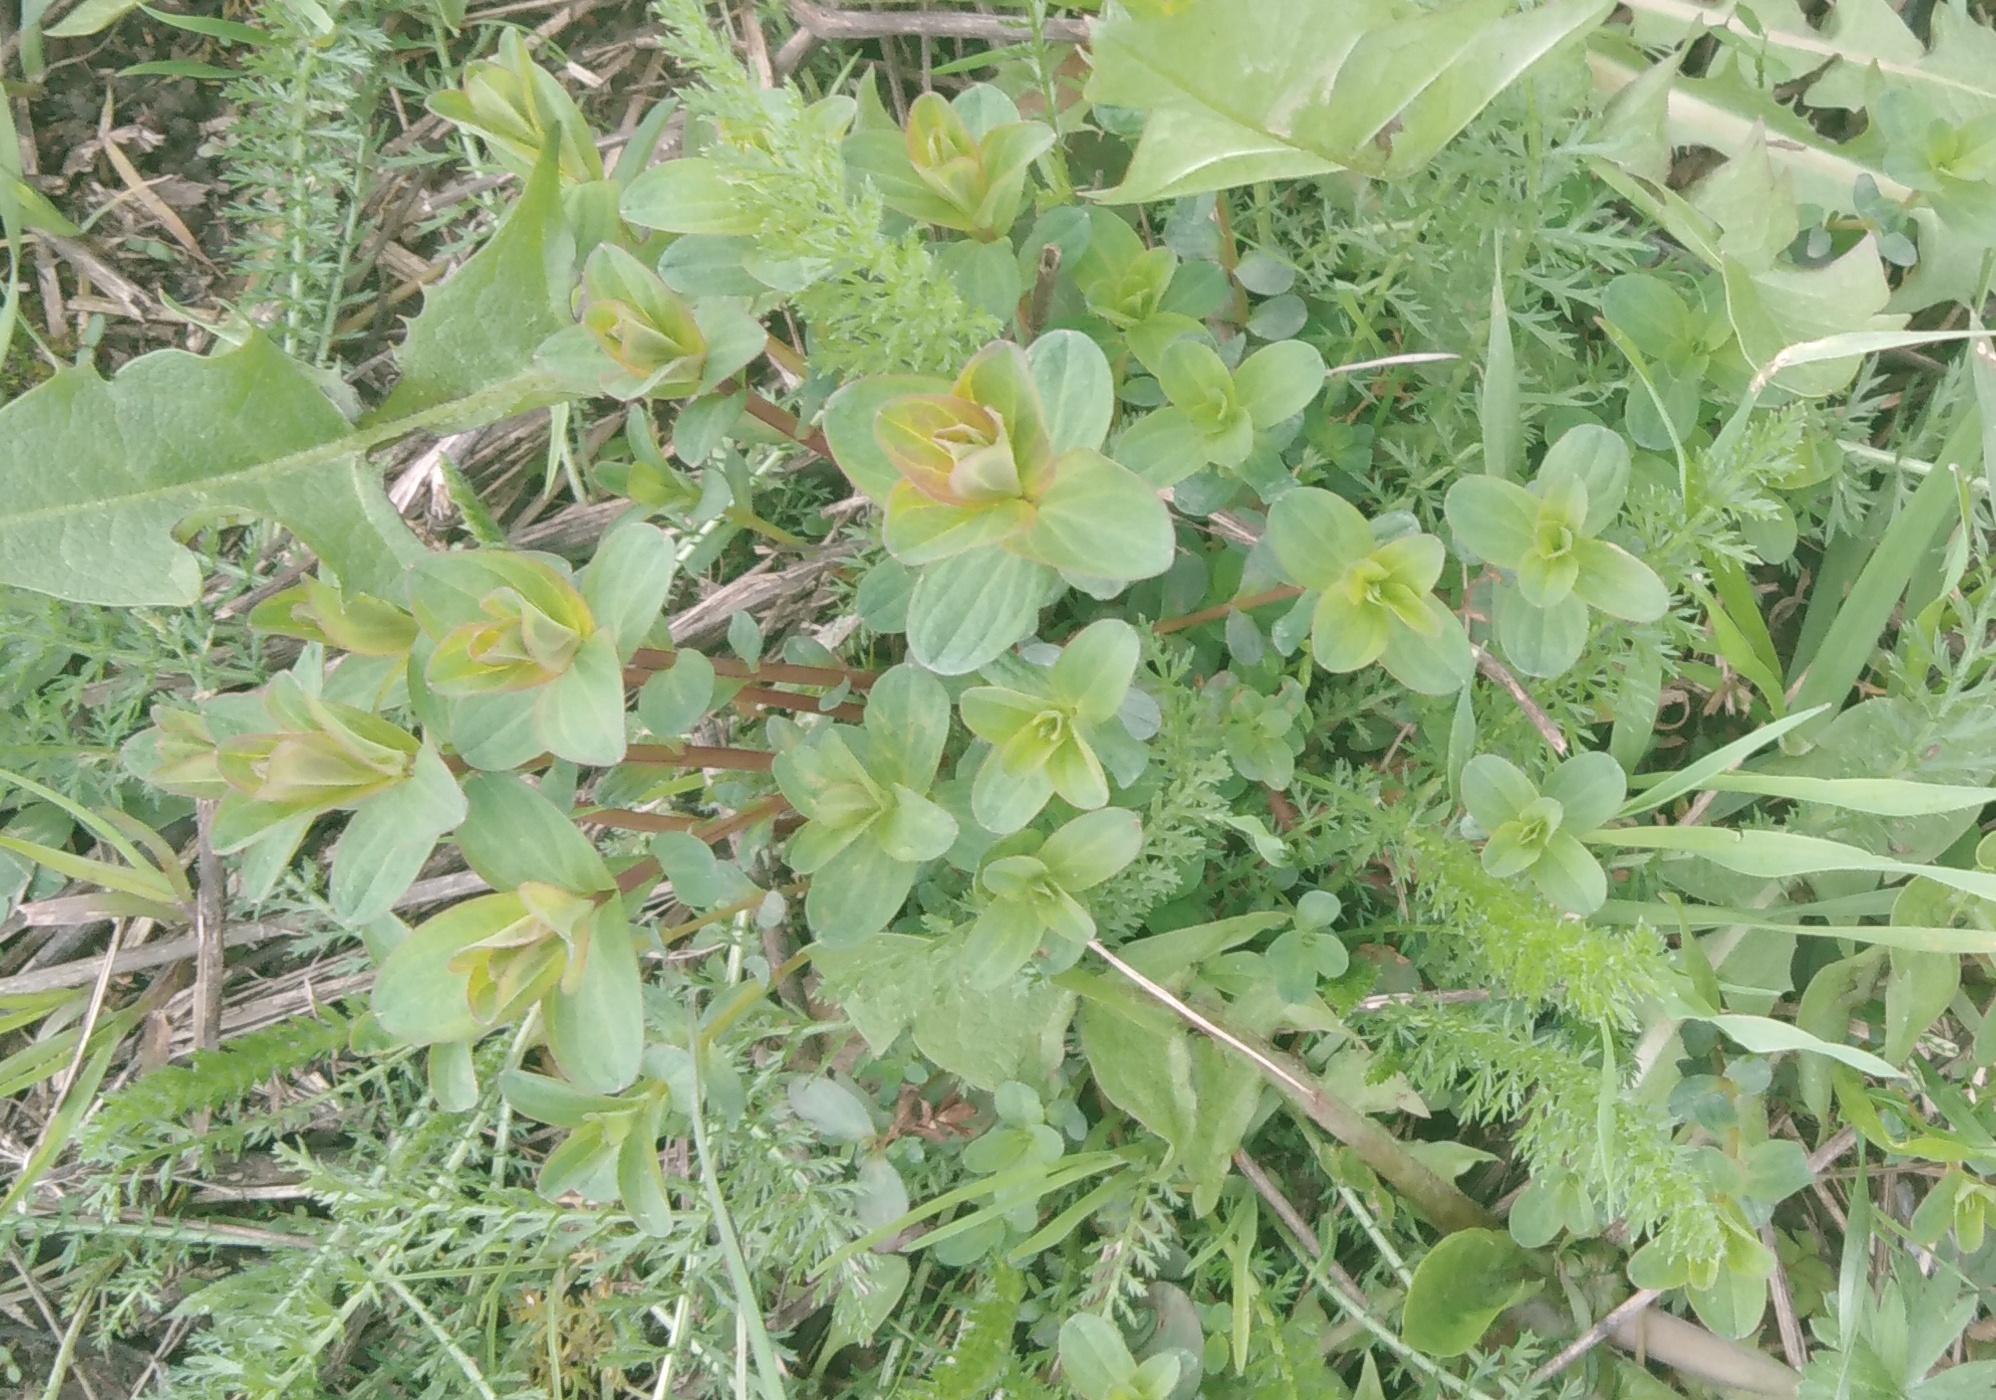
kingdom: Plantae
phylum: Tracheophyta
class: Magnoliopsida
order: Malpighiales
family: Hypericaceae
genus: Hypericum
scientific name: Hypericum perforatum
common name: Common st. johnswort
